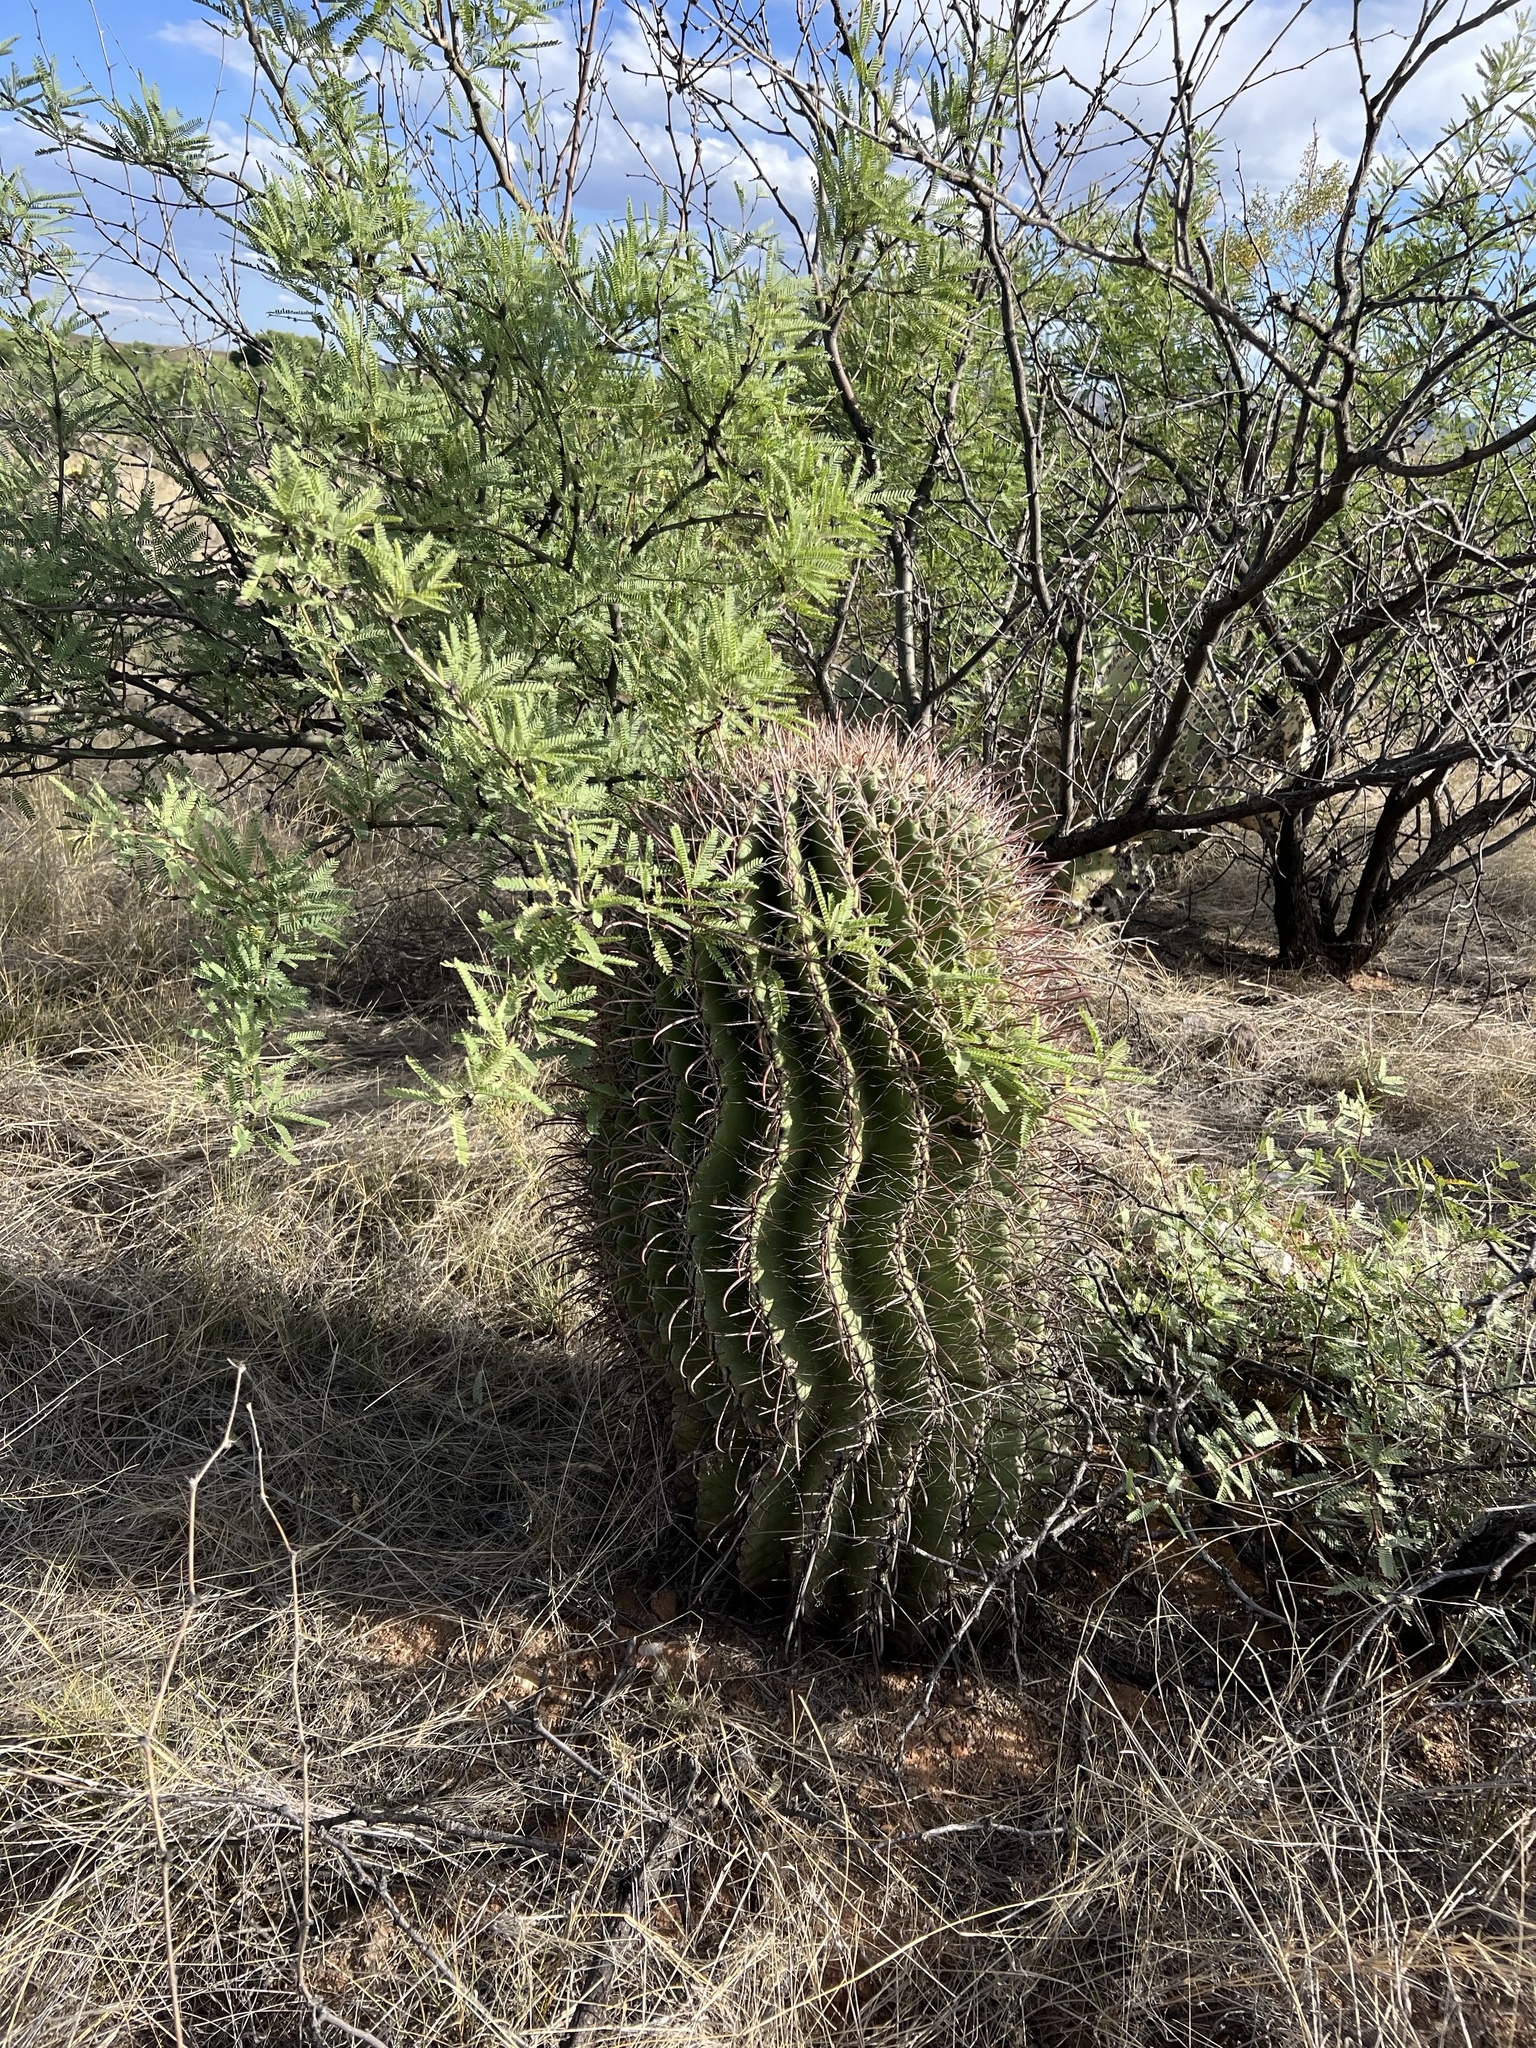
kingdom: Plantae
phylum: Tracheophyta
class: Magnoliopsida
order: Caryophyllales
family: Cactaceae
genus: Ferocactus
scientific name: Ferocactus wislizeni
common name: Candy barrel cactus
